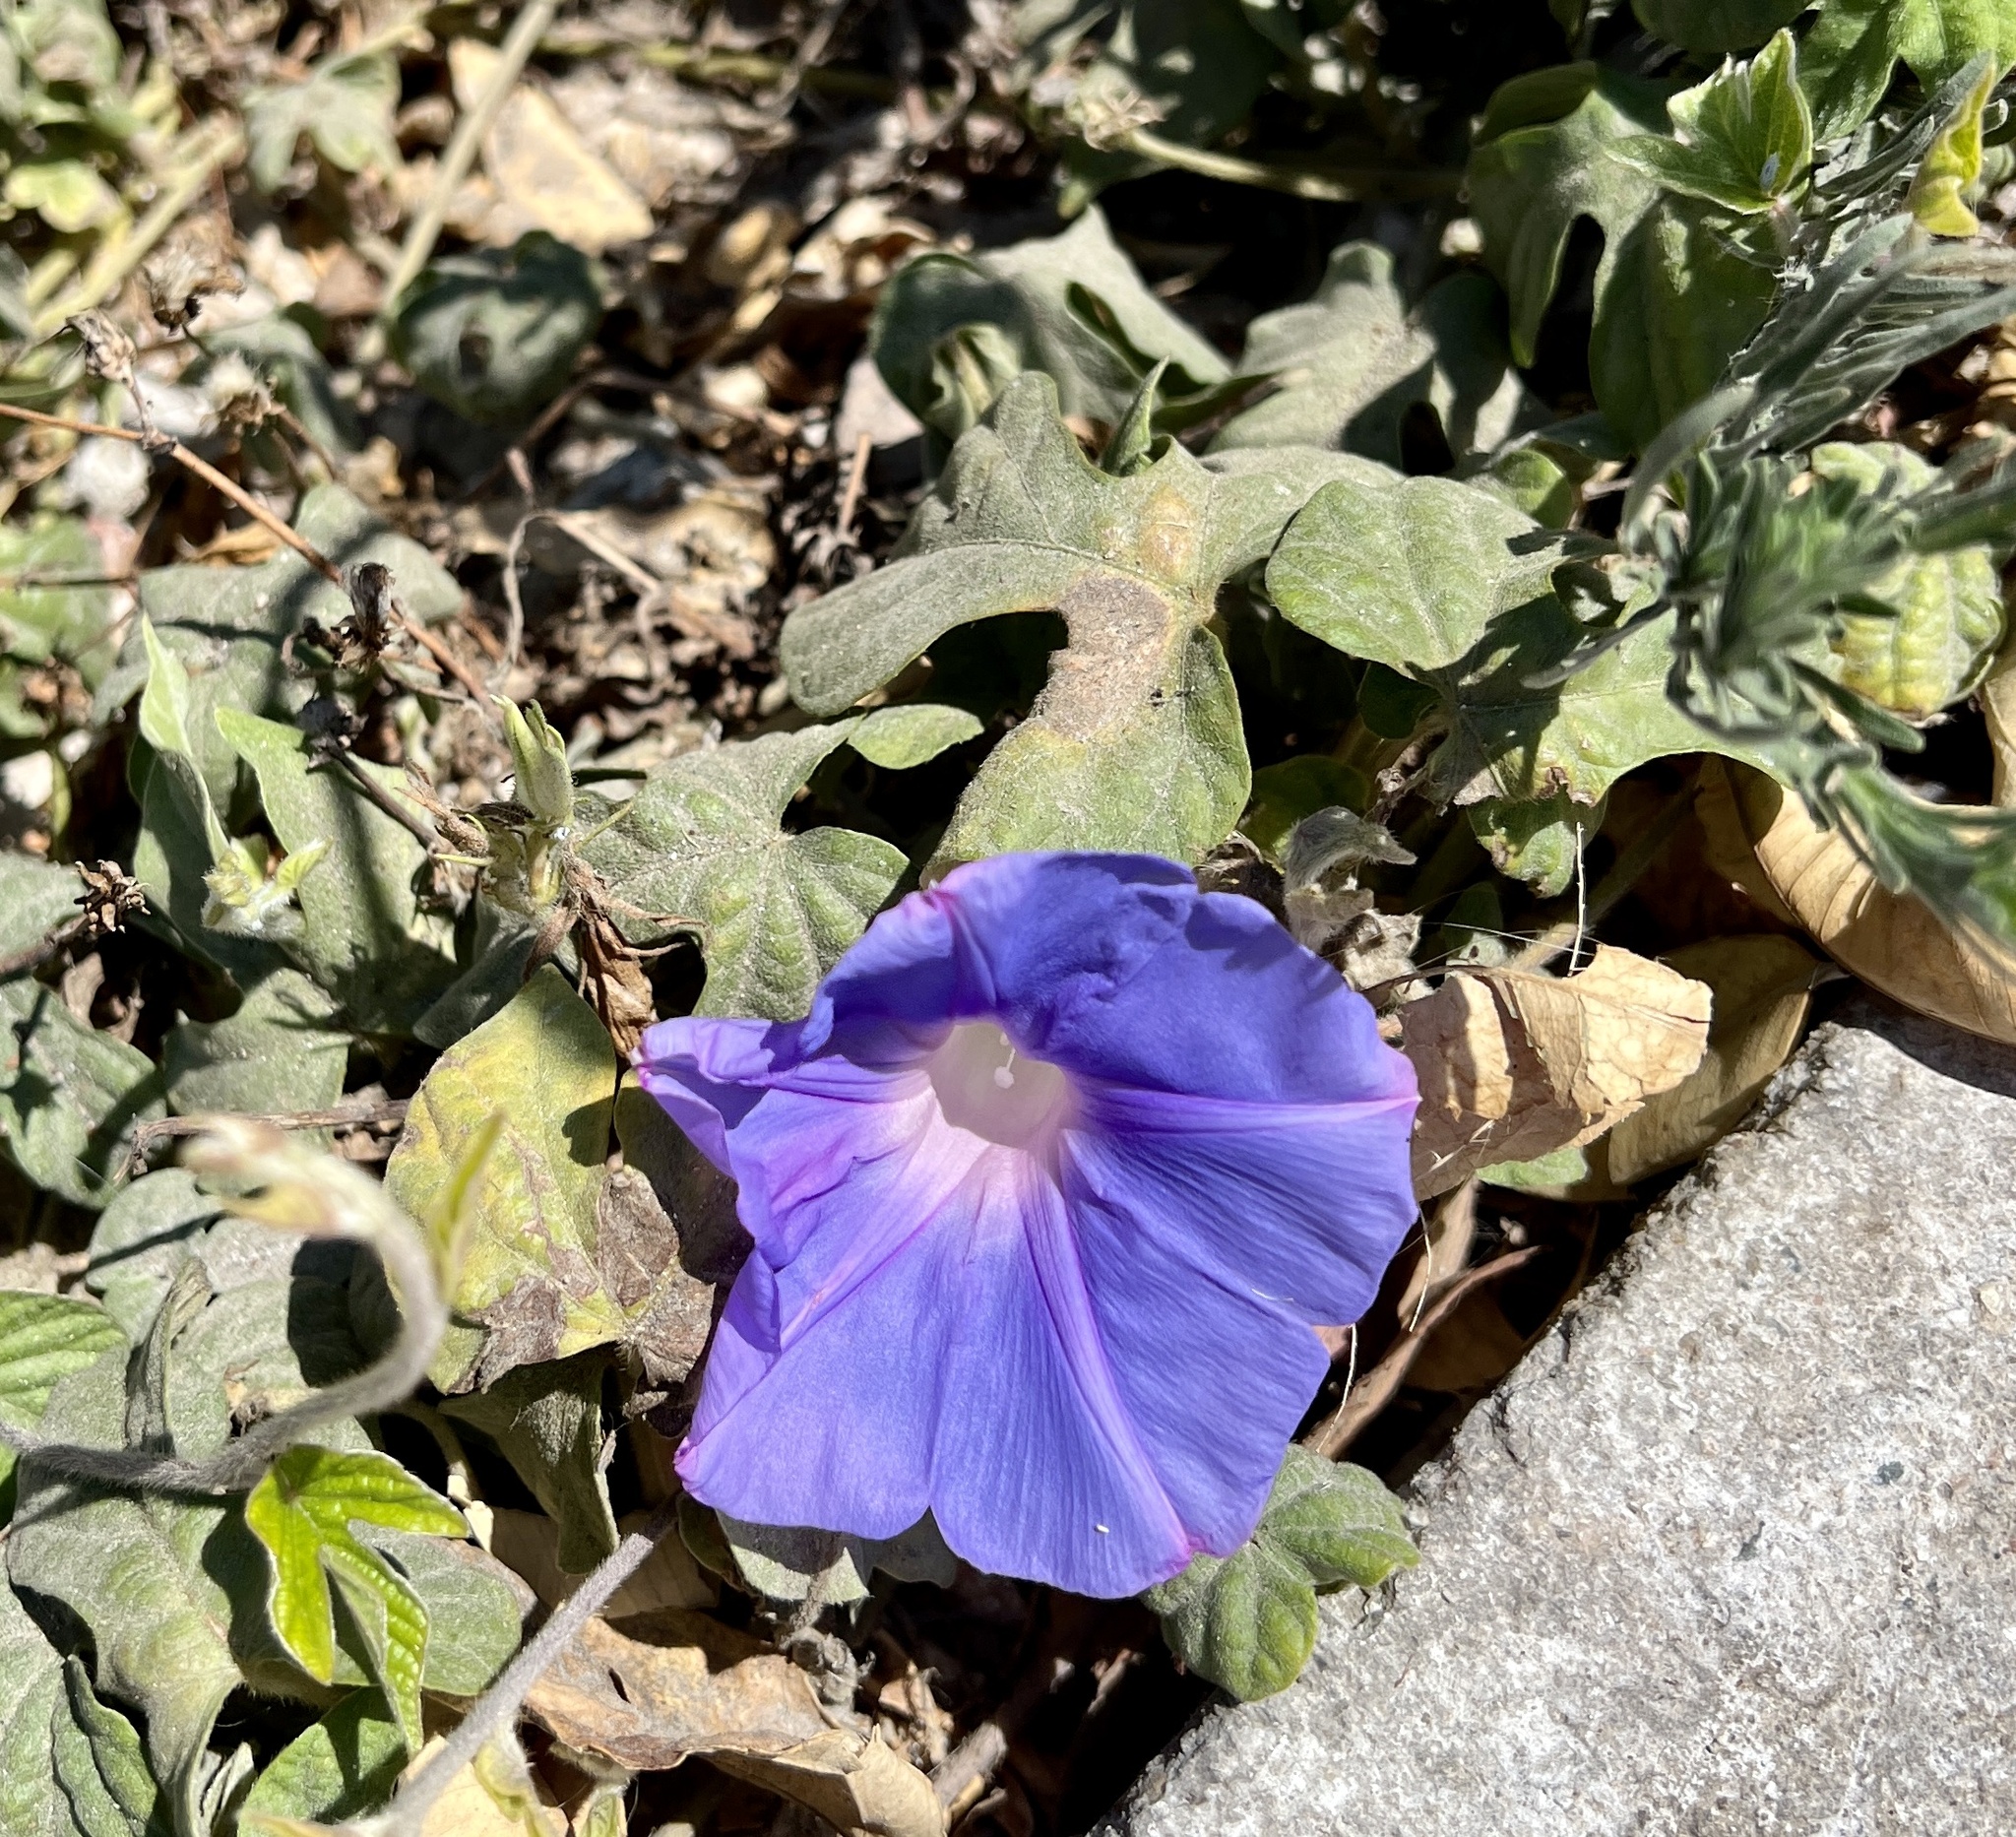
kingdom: Plantae
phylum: Tracheophyta
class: Magnoliopsida
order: Solanales
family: Convolvulaceae
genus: Ipomoea
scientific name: Ipomoea indica
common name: Blue dawnflower
